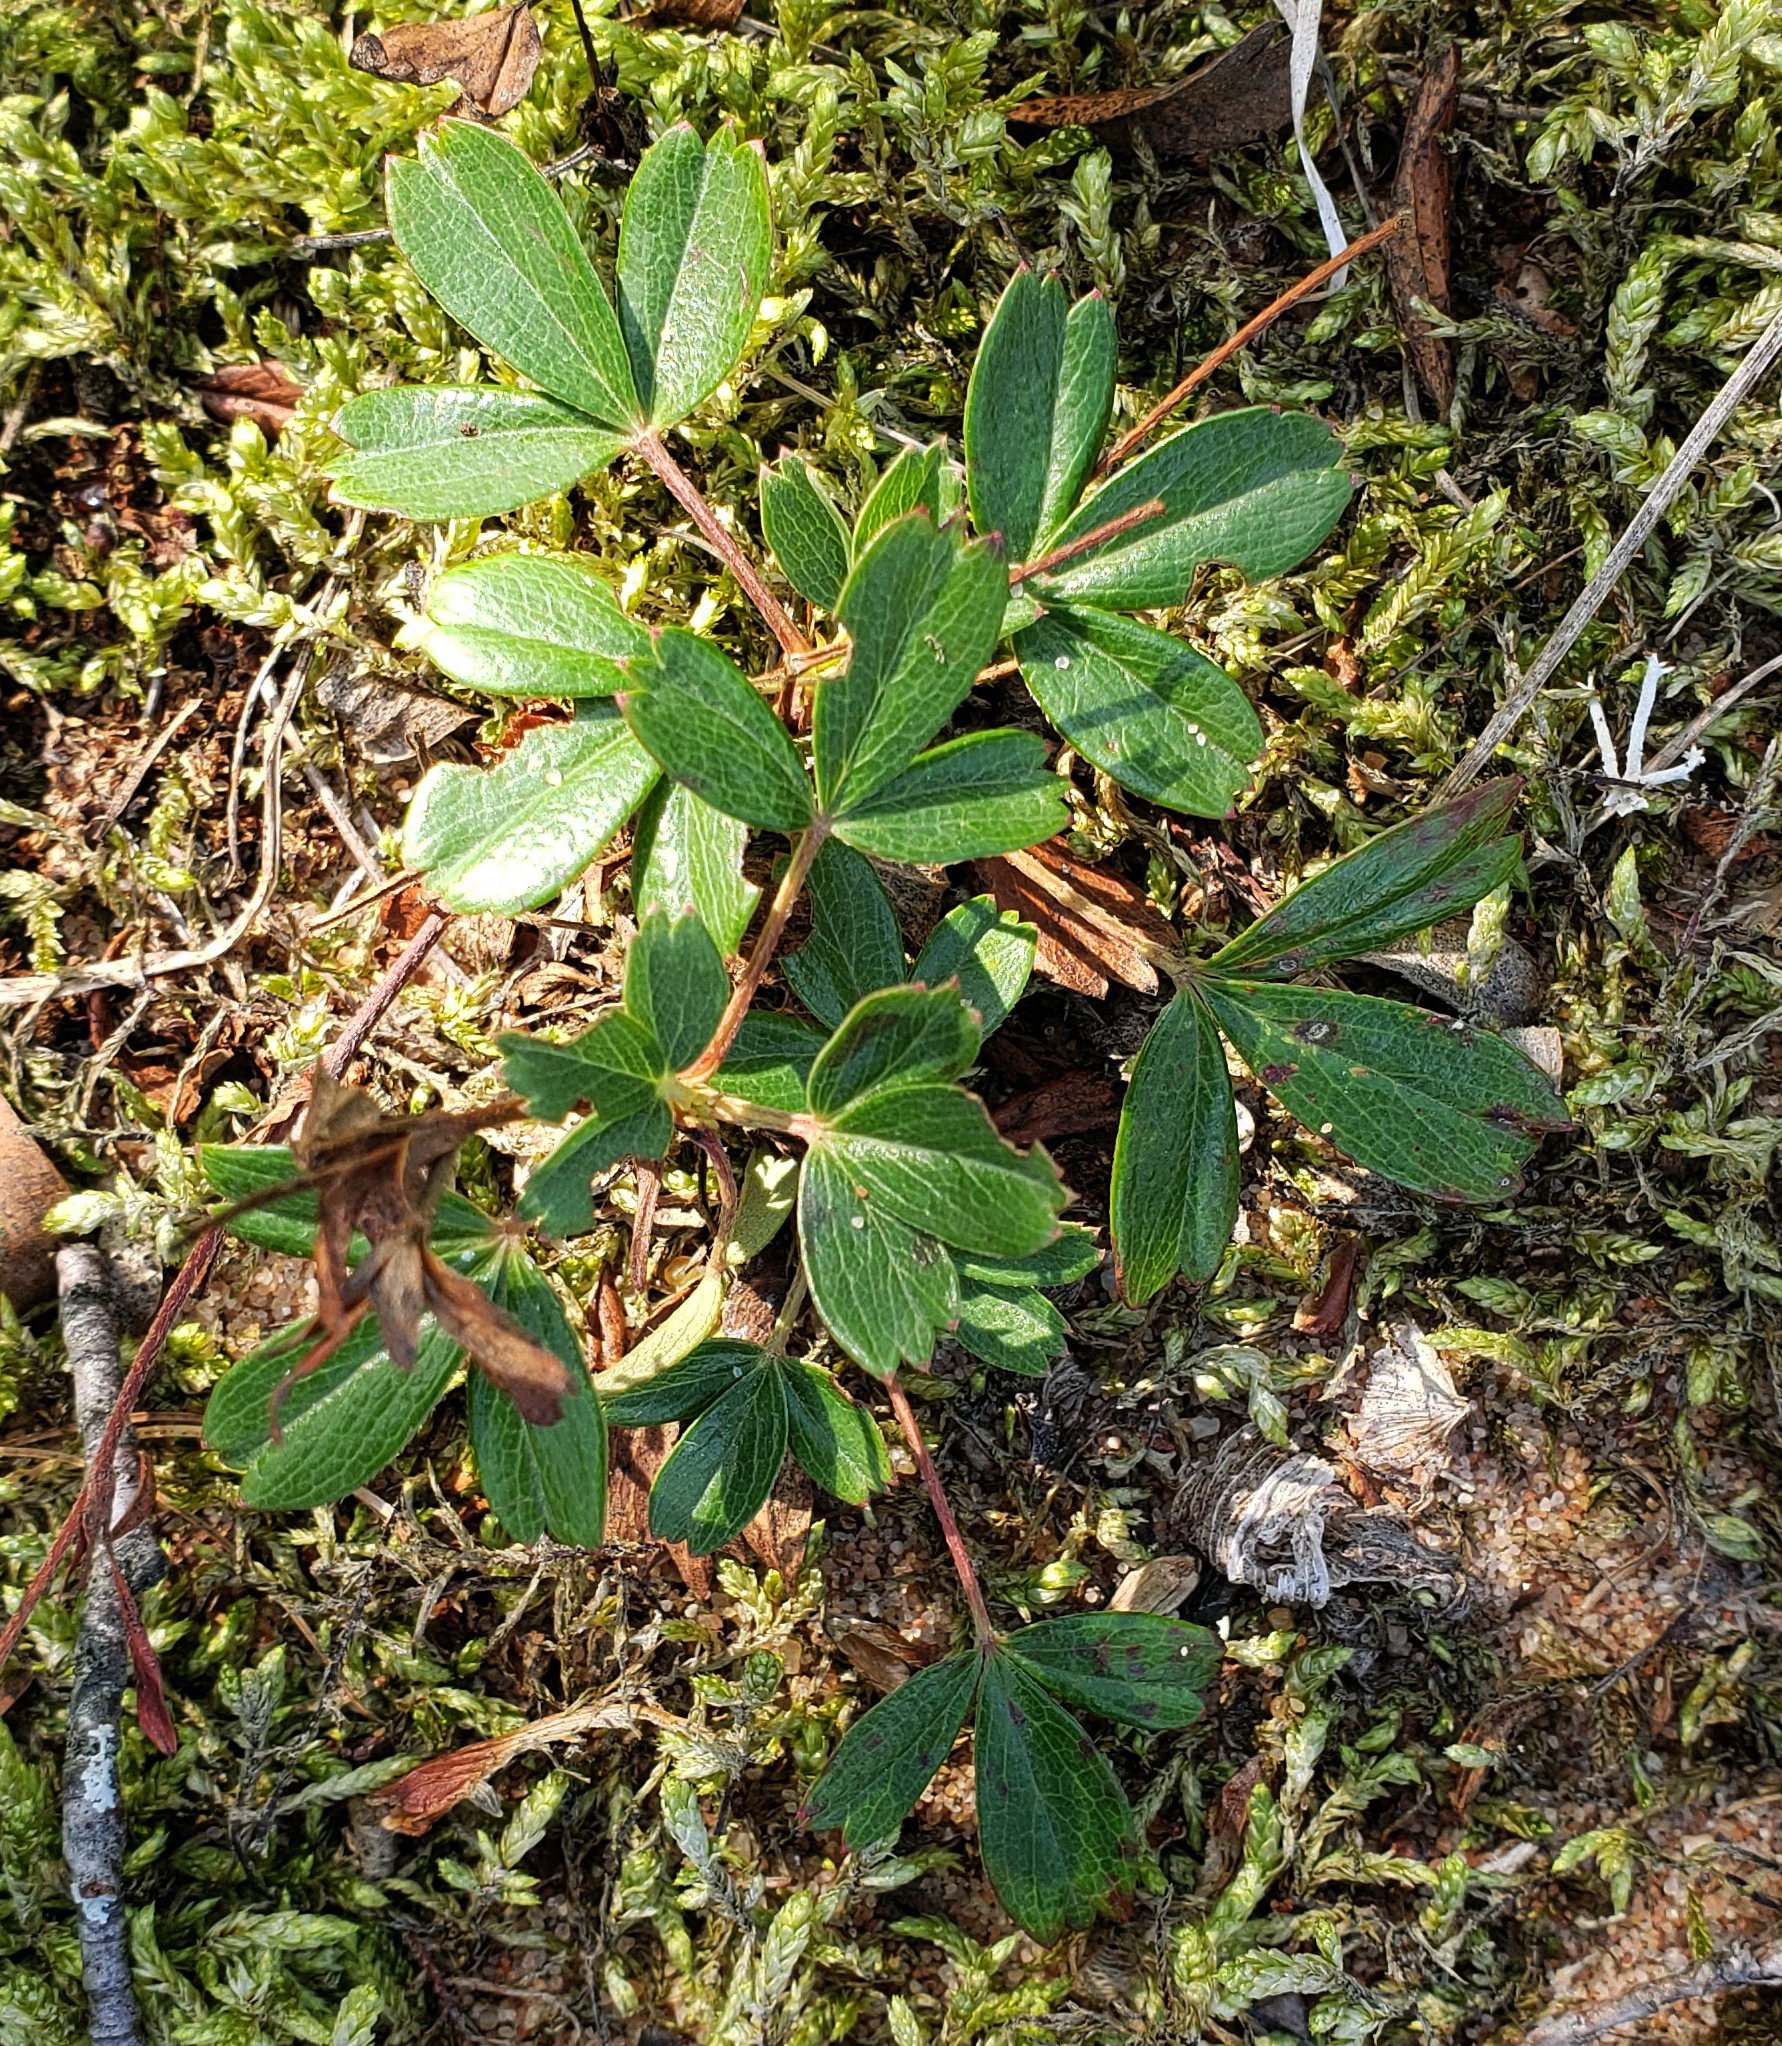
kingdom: Plantae
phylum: Tracheophyta
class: Magnoliopsida
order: Rosales
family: Rosaceae
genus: Sibbaldia
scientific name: Sibbaldia tridentata
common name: Three-toothed cinquefoil
